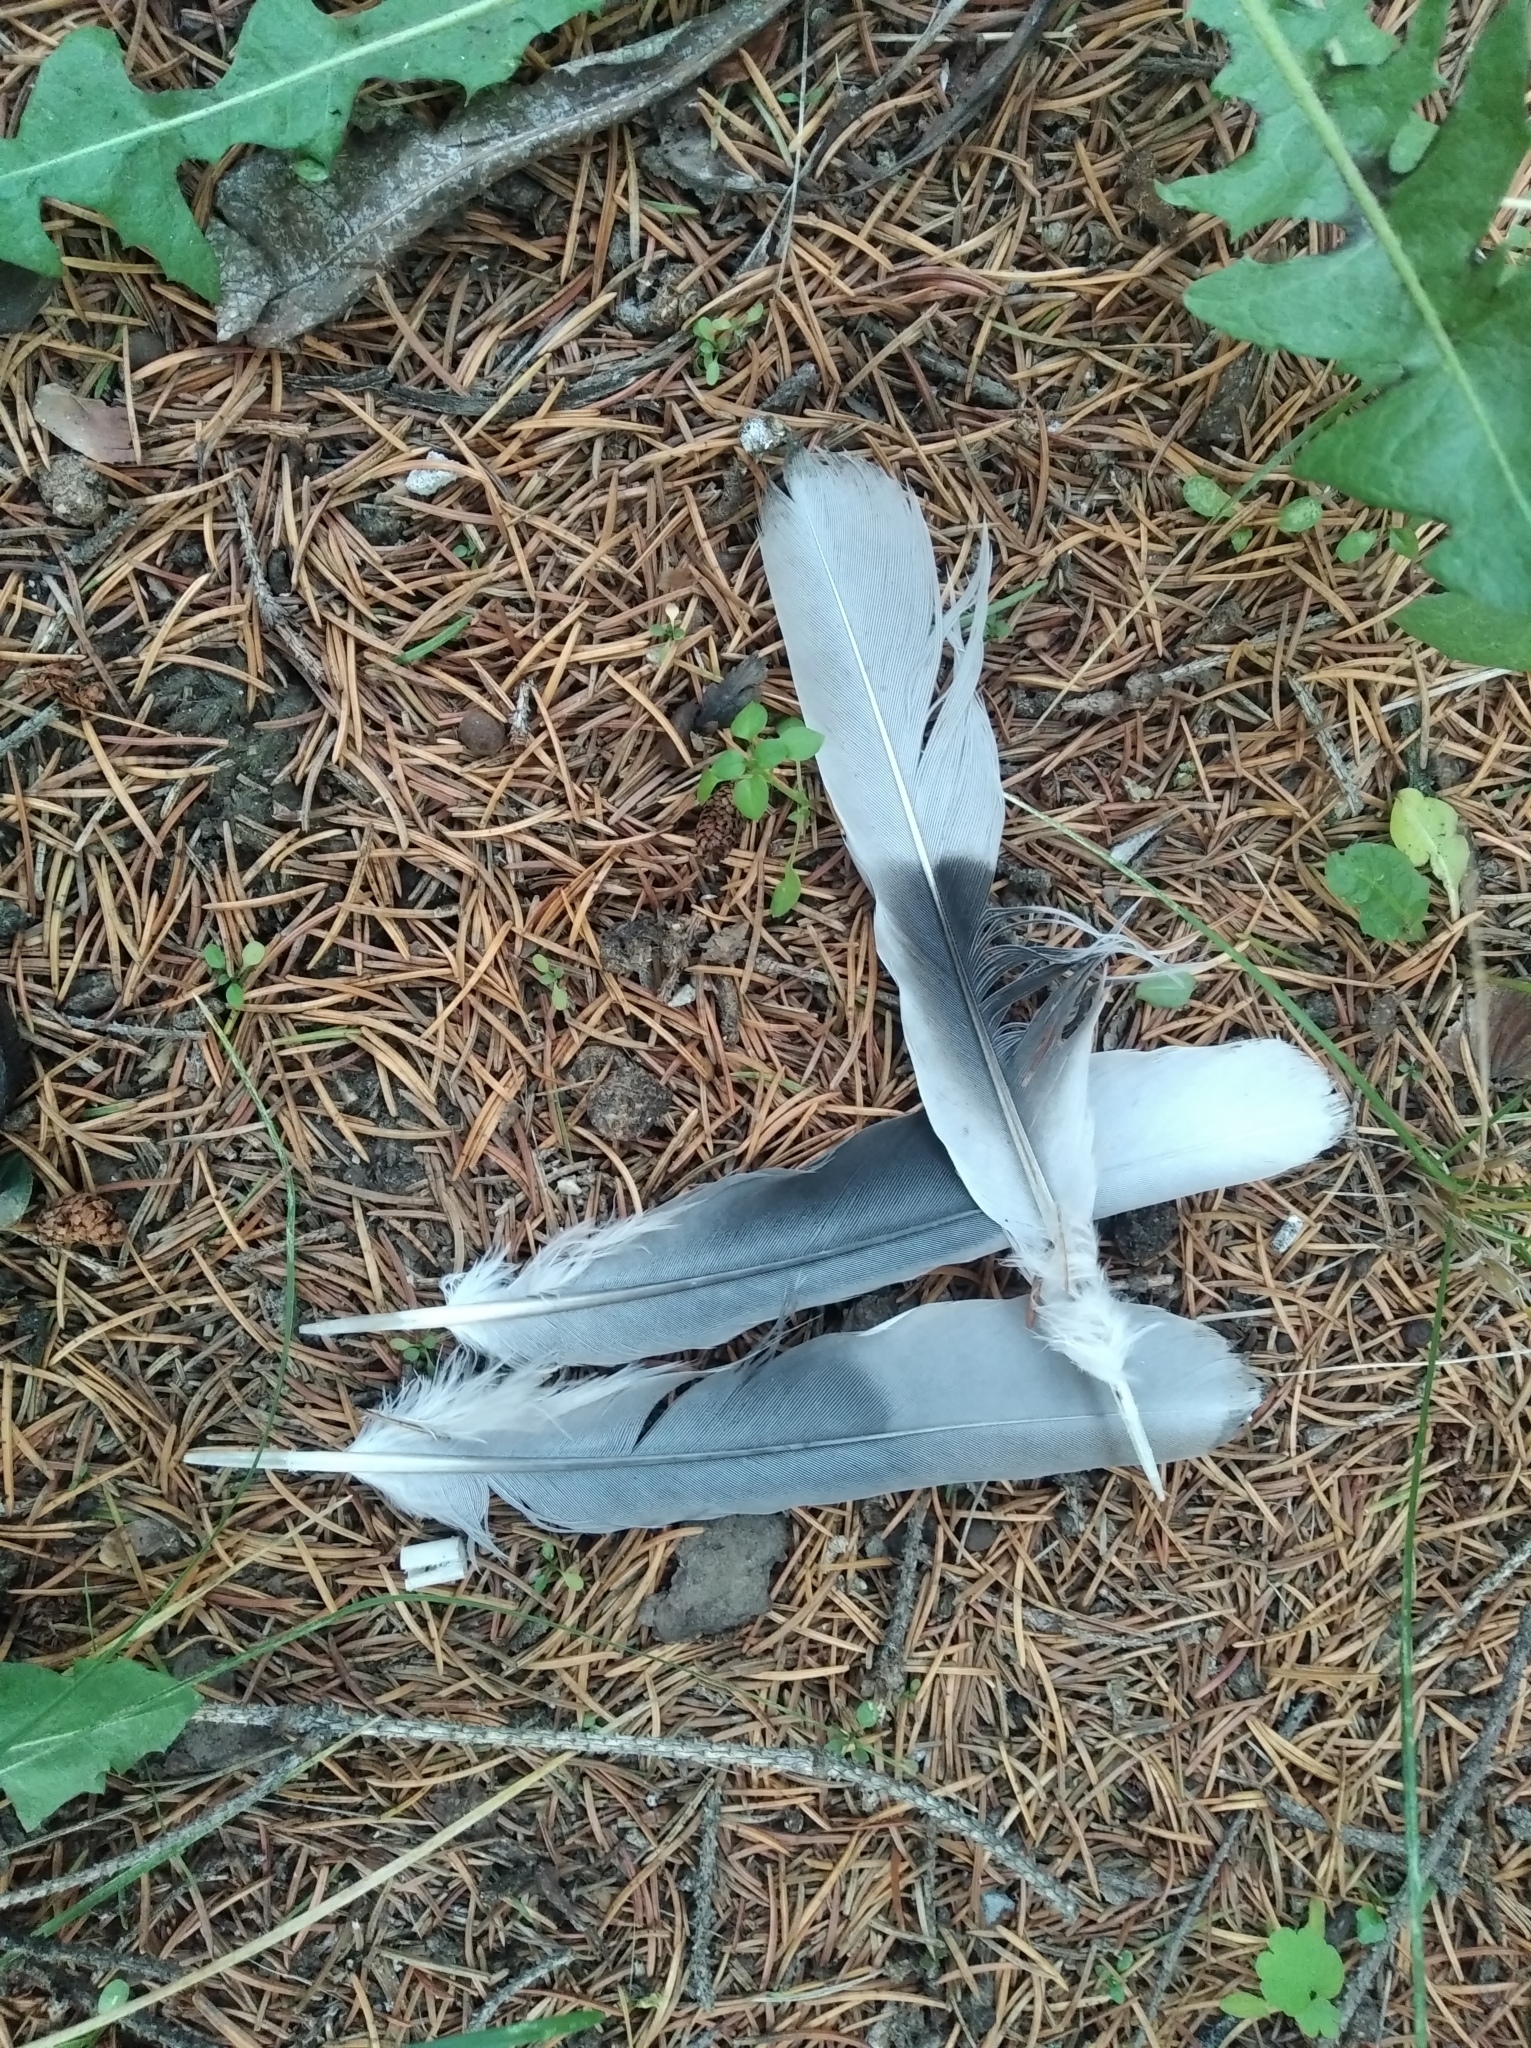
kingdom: Animalia
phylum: Chordata
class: Aves
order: Columbiformes
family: Columbidae
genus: Streptopelia
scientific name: Streptopelia decaocto
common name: Eurasian collared dove
